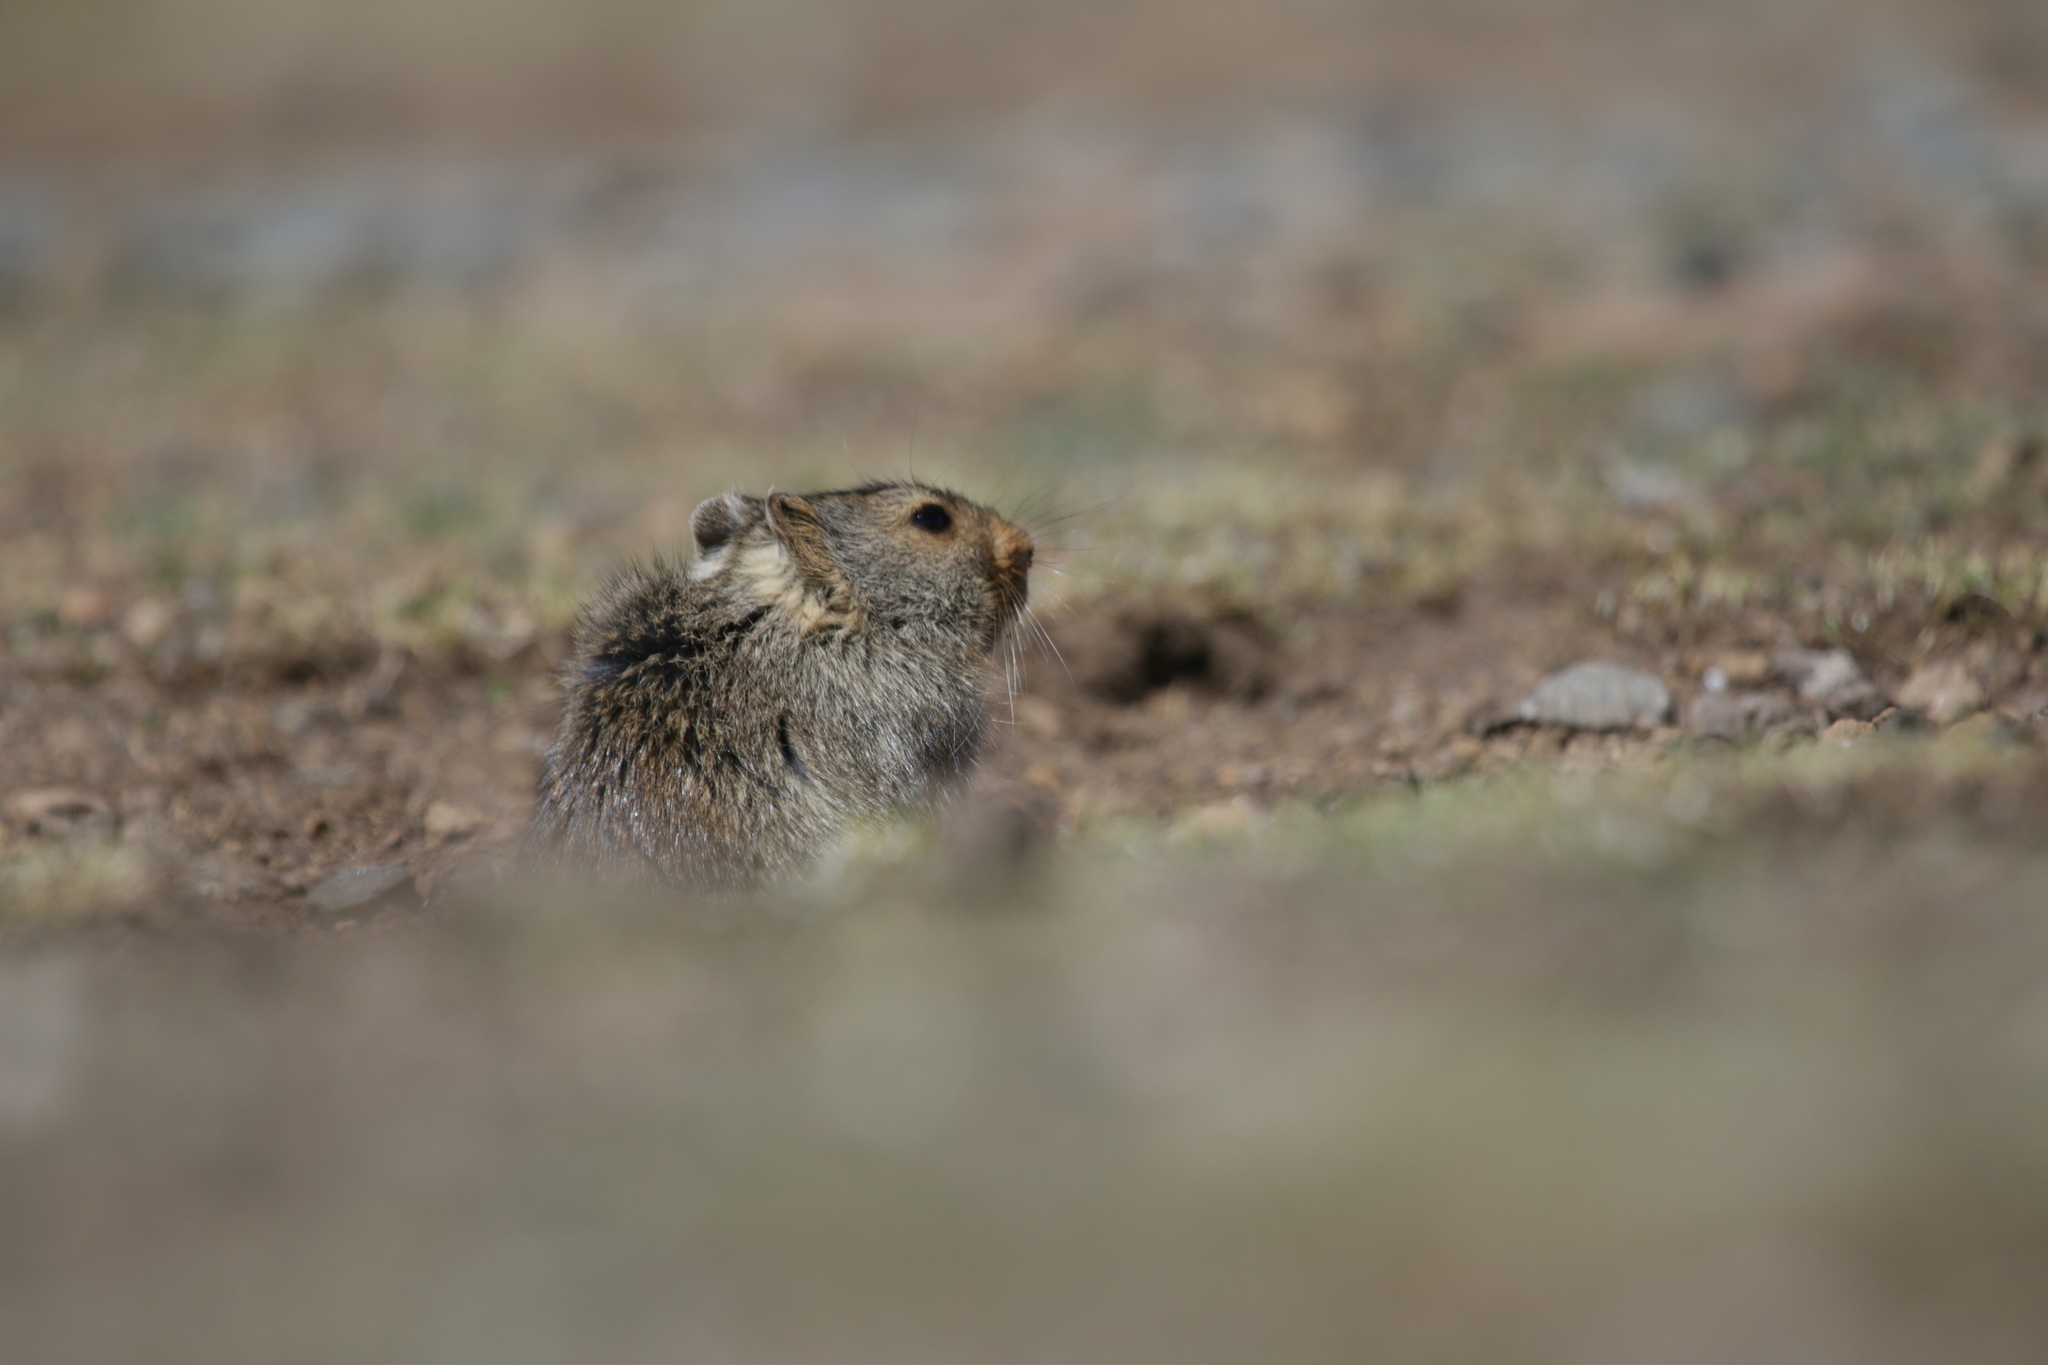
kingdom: Animalia
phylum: Chordata
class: Mammalia
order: Rodentia
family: Muridae
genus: Myotomys
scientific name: Myotomys sloggetti
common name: Rock karroo rat
